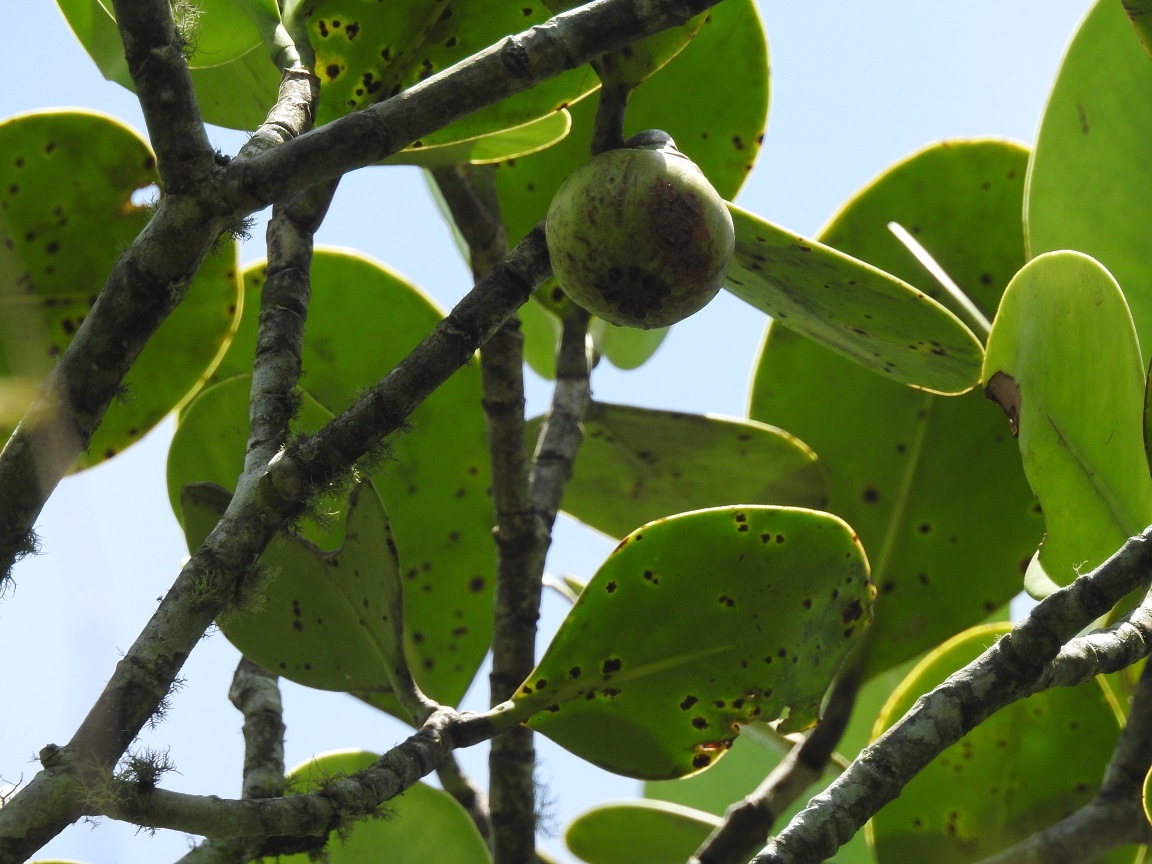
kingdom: Plantae
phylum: Tracheophyta
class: Magnoliopsida
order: Malpighiales
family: Clusiaceae
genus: Clusia
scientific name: Clusia tetratrianthera
